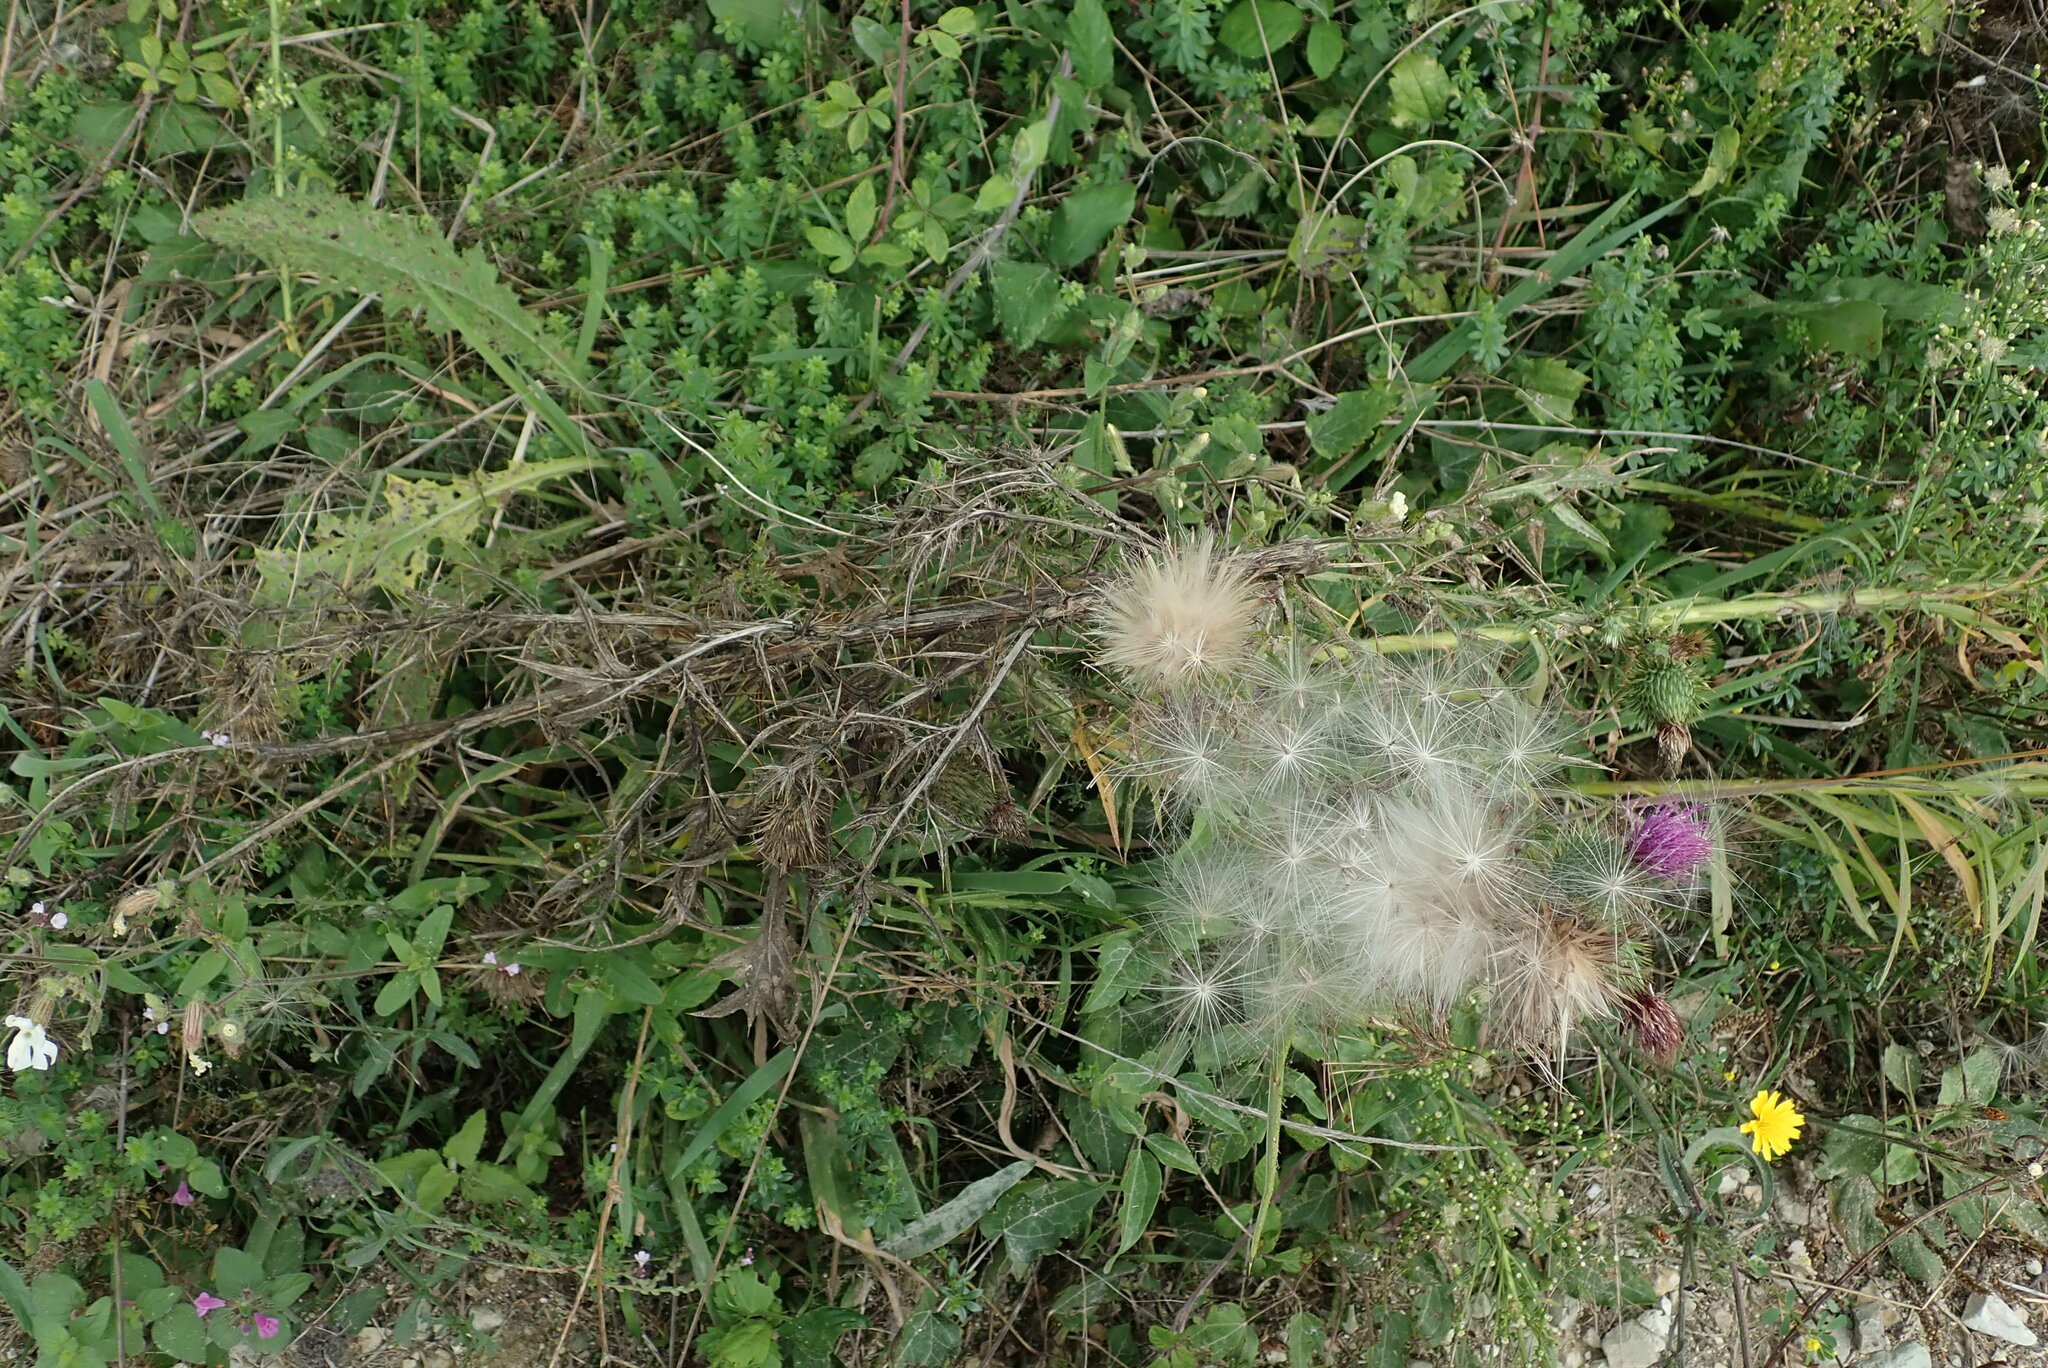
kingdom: Plantae
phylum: Tracheophyta
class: Magnoliopsida
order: Asterales
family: Asteraceae
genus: Cirsium
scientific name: Cirsium vulgare
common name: Bull thistle
